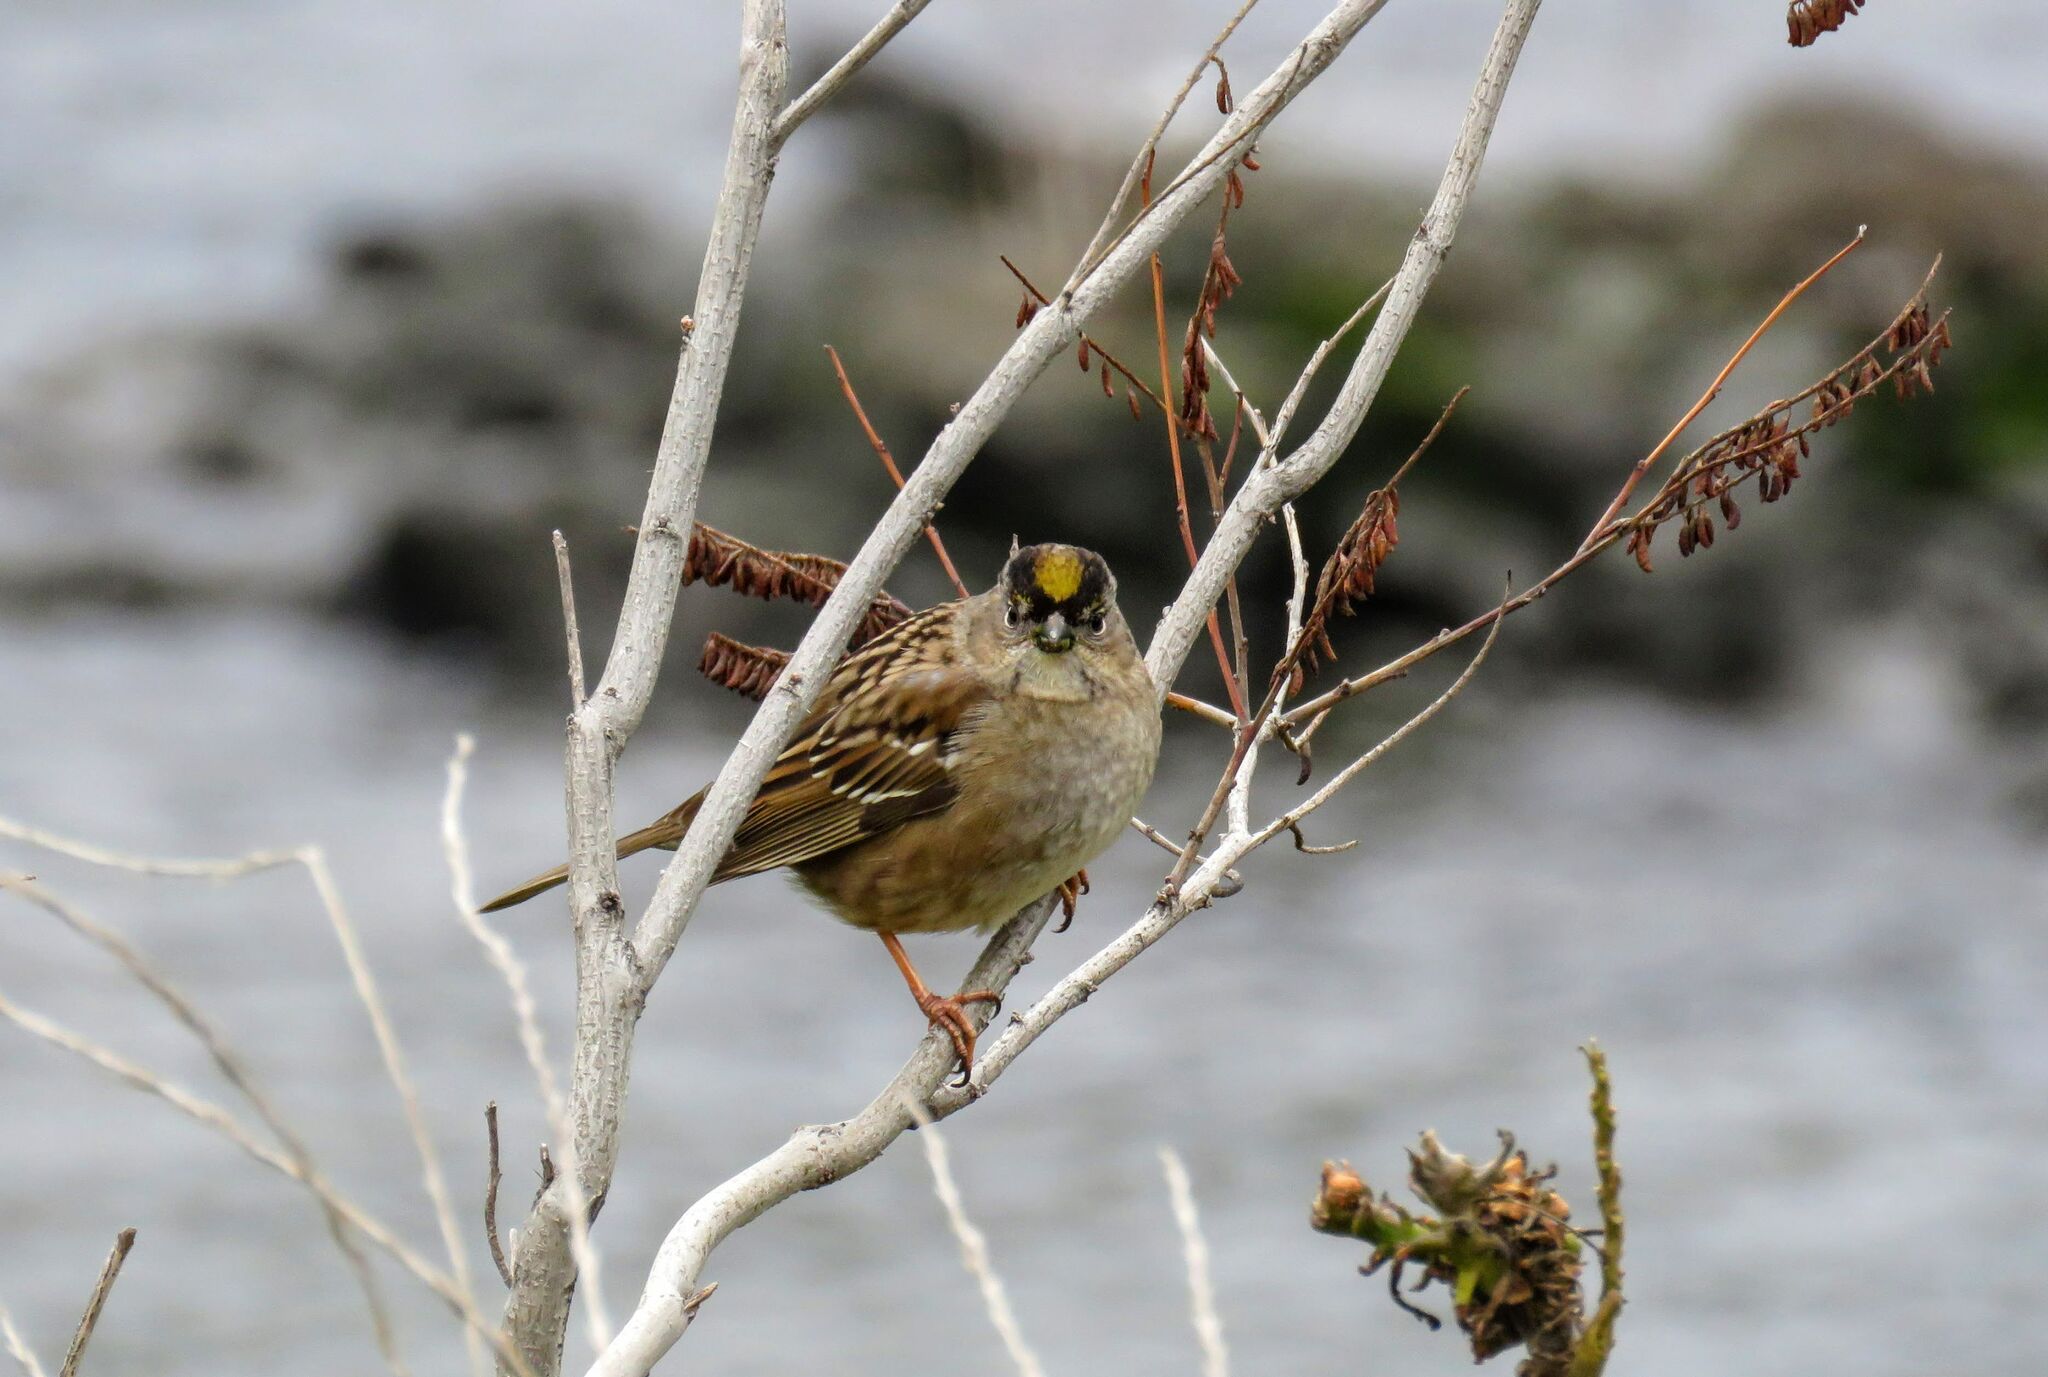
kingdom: Animalia
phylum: Chordata
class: Aves
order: Passeriformes
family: Passerellidae
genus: Zonotrichia
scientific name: Zonotrichia atricapilla
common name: Golden-crowned sparrow
